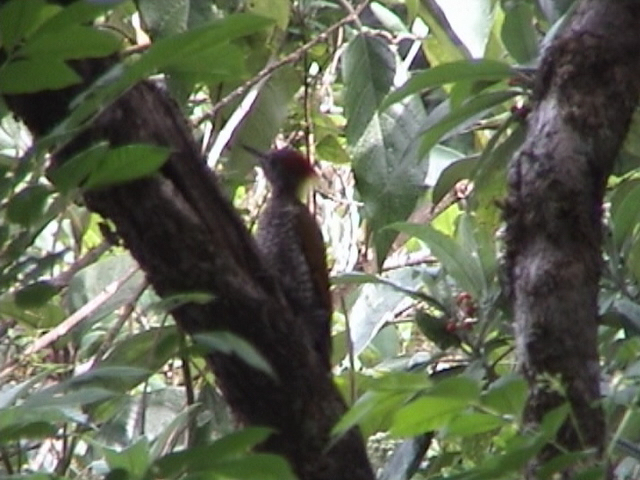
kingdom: Animalia
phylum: Chordata
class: Aves
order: Piciformes
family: Picidae
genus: Picus
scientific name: Picus chlorolophus
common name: Lesser yellownape
